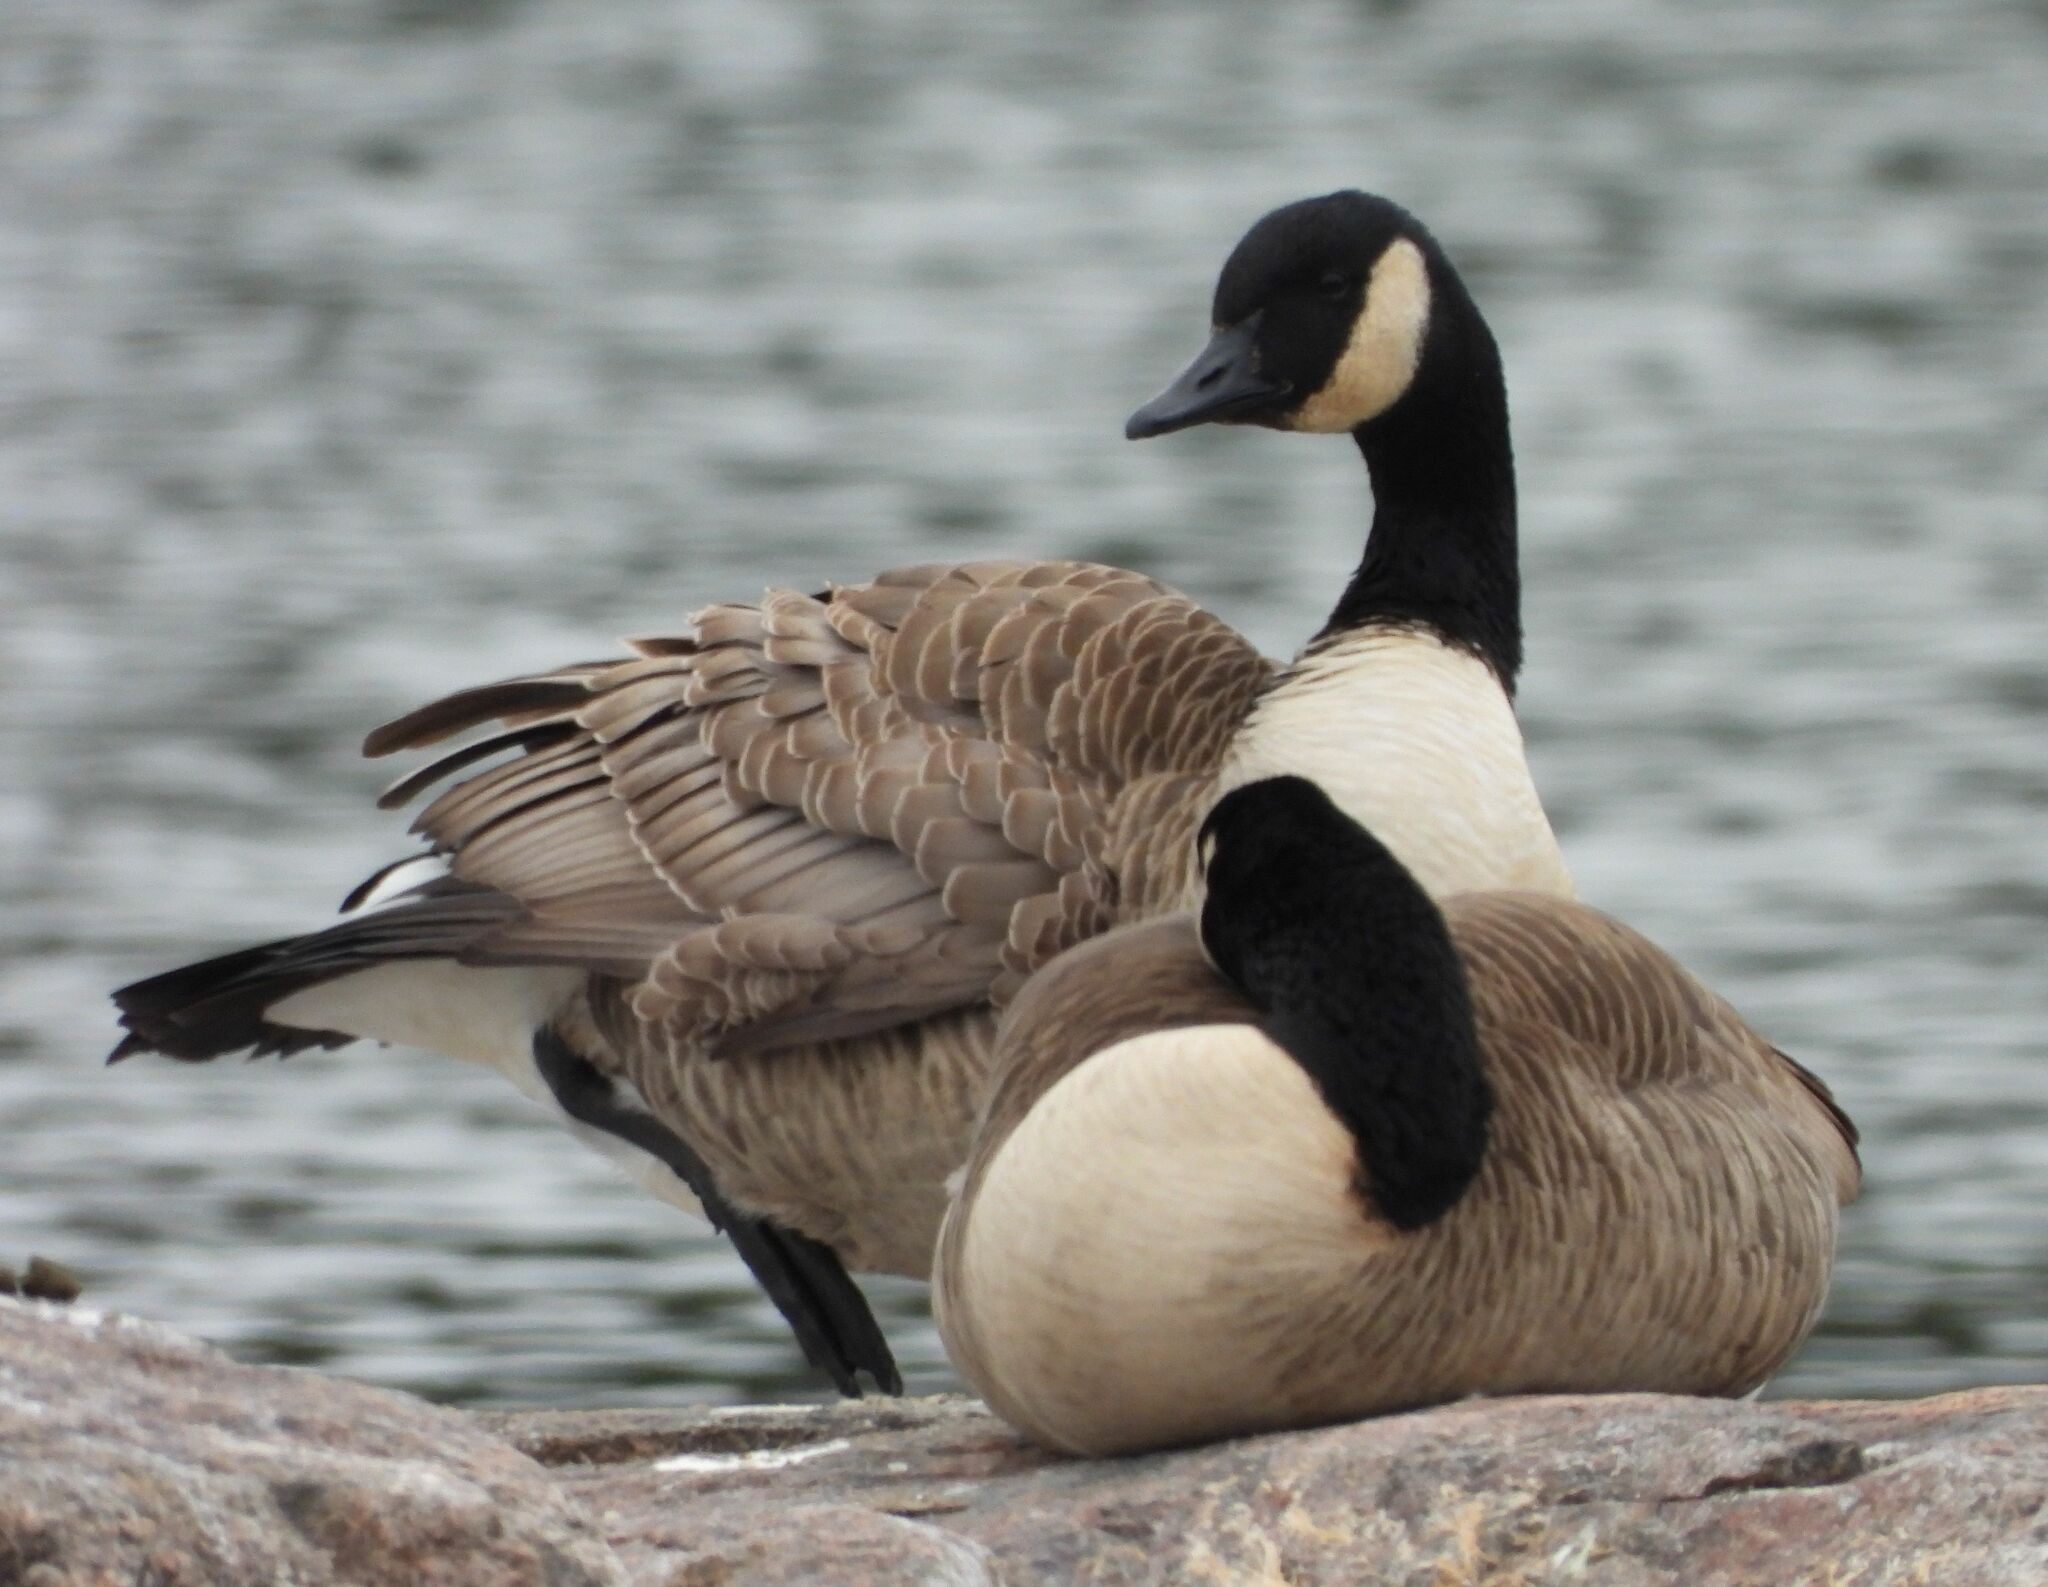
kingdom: Animalia
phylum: Chordata
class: Aves
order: Anseriformes
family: Anatidae
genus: Branta
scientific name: Branta canadensis
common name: Canada goose
